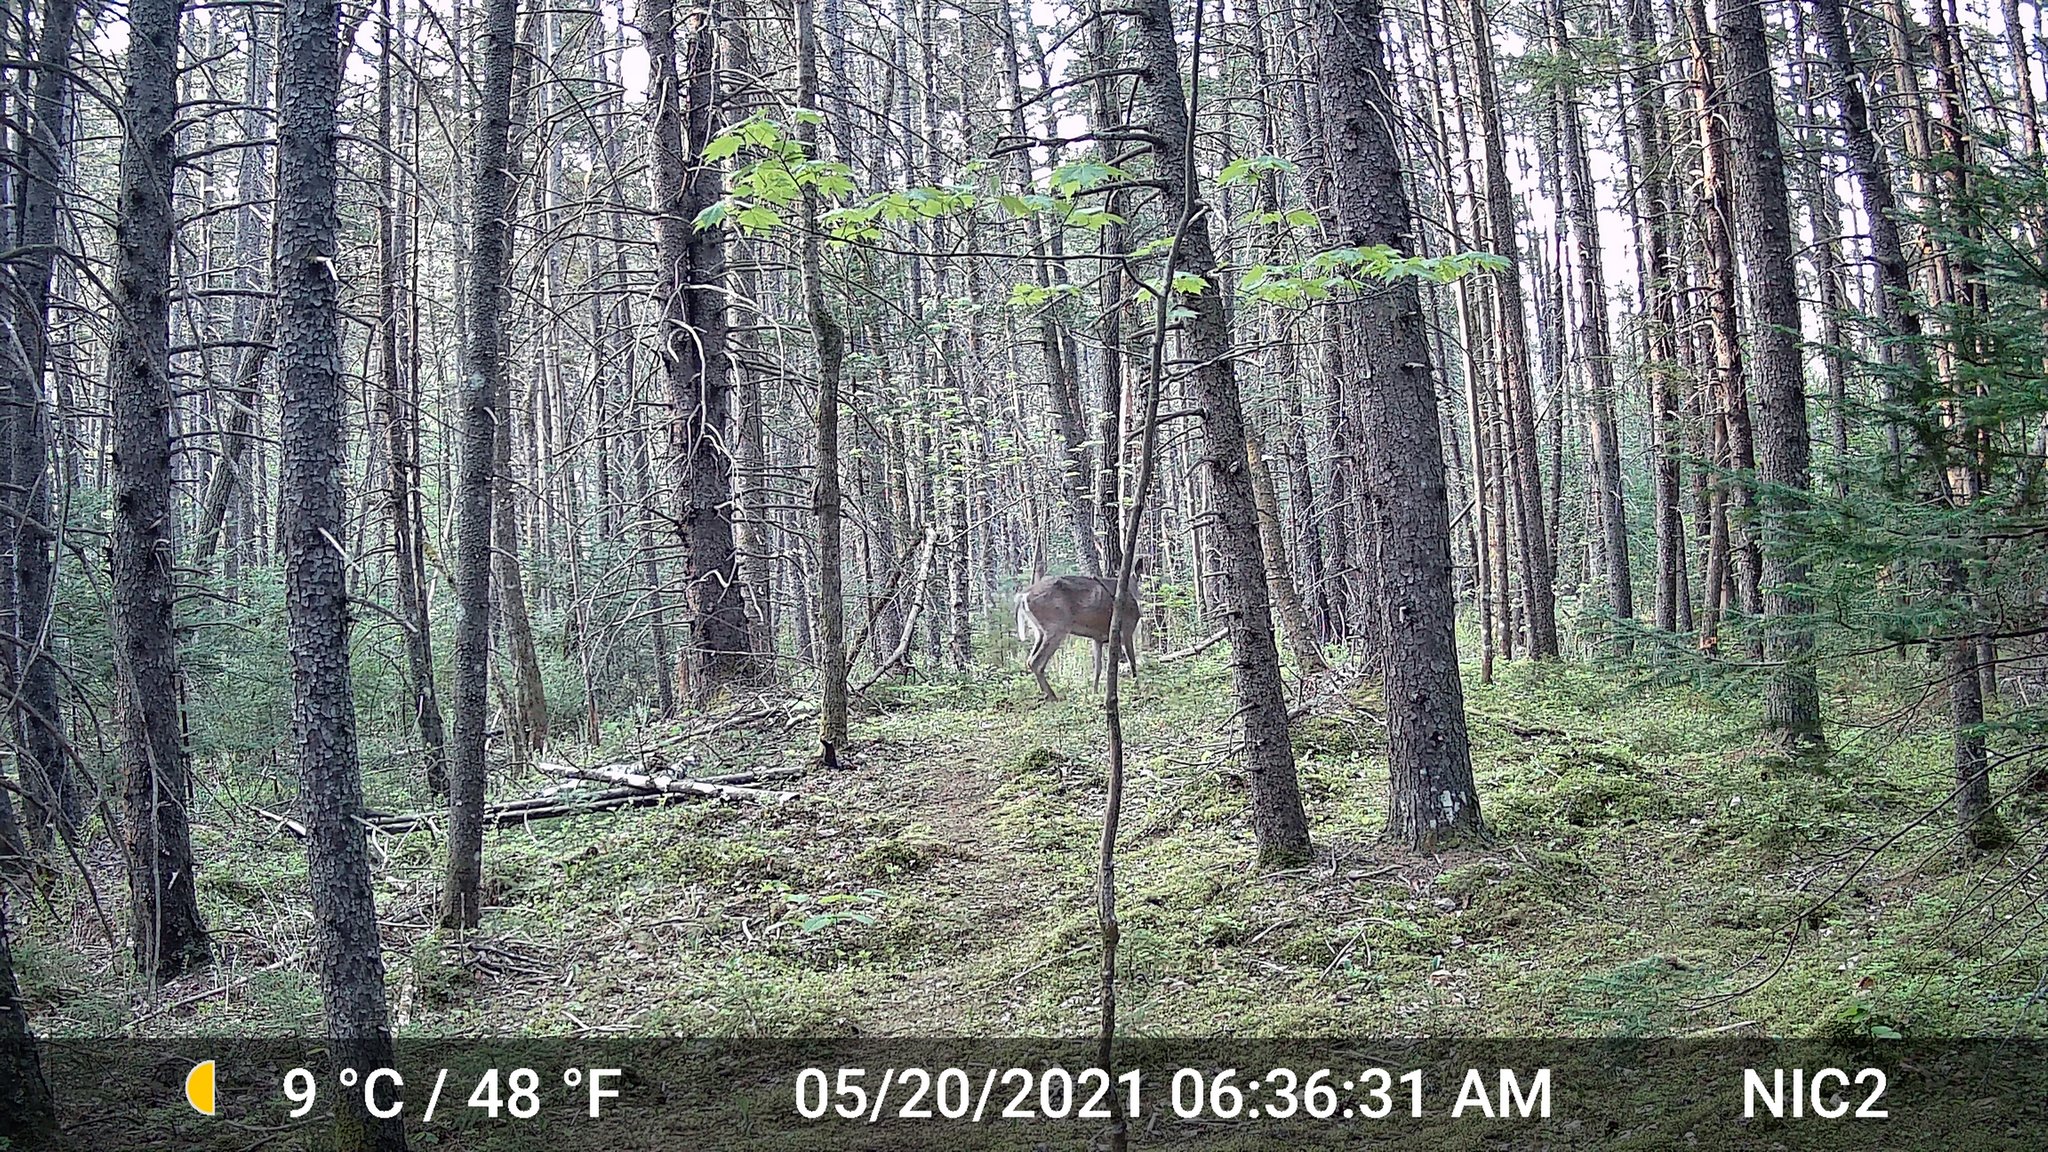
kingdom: Animalia
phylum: Chordata
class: Mammalia
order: Artiodactyla
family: Cervidae
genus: Odocoileus
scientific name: Odocoileus virginianus
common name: White-tailed deer
